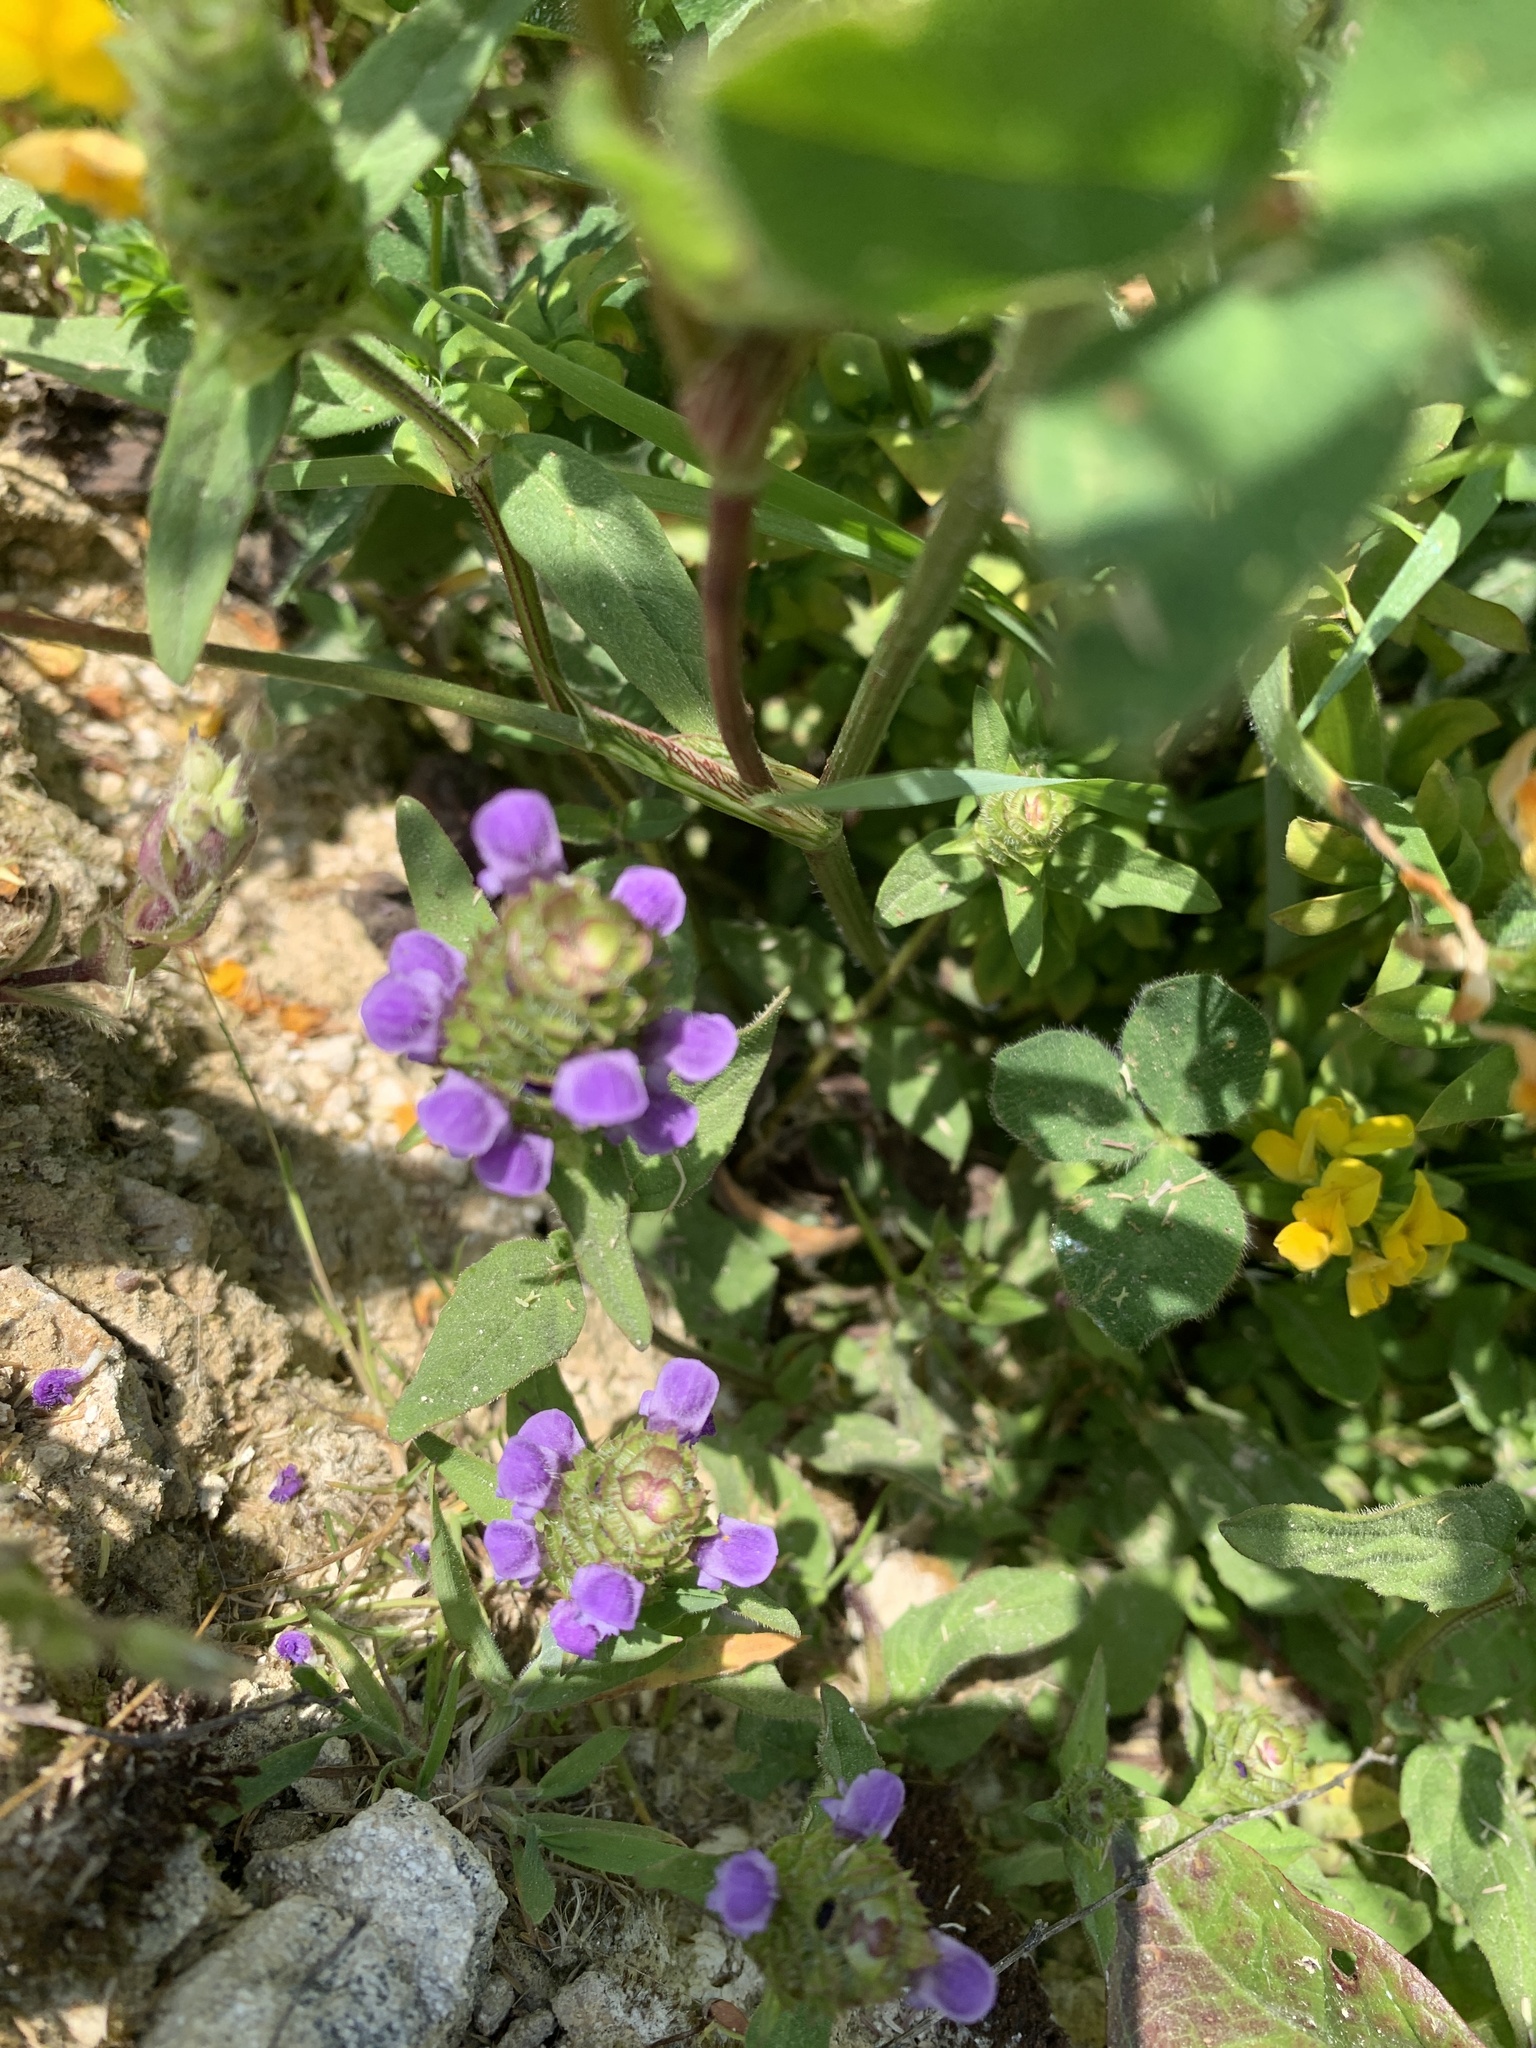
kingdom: Plantae
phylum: Tracheophyta
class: Magnoliopsida
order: Lamiales
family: Lamiaceae
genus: Prunella
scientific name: Prunella vulgaris
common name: Heal-all
